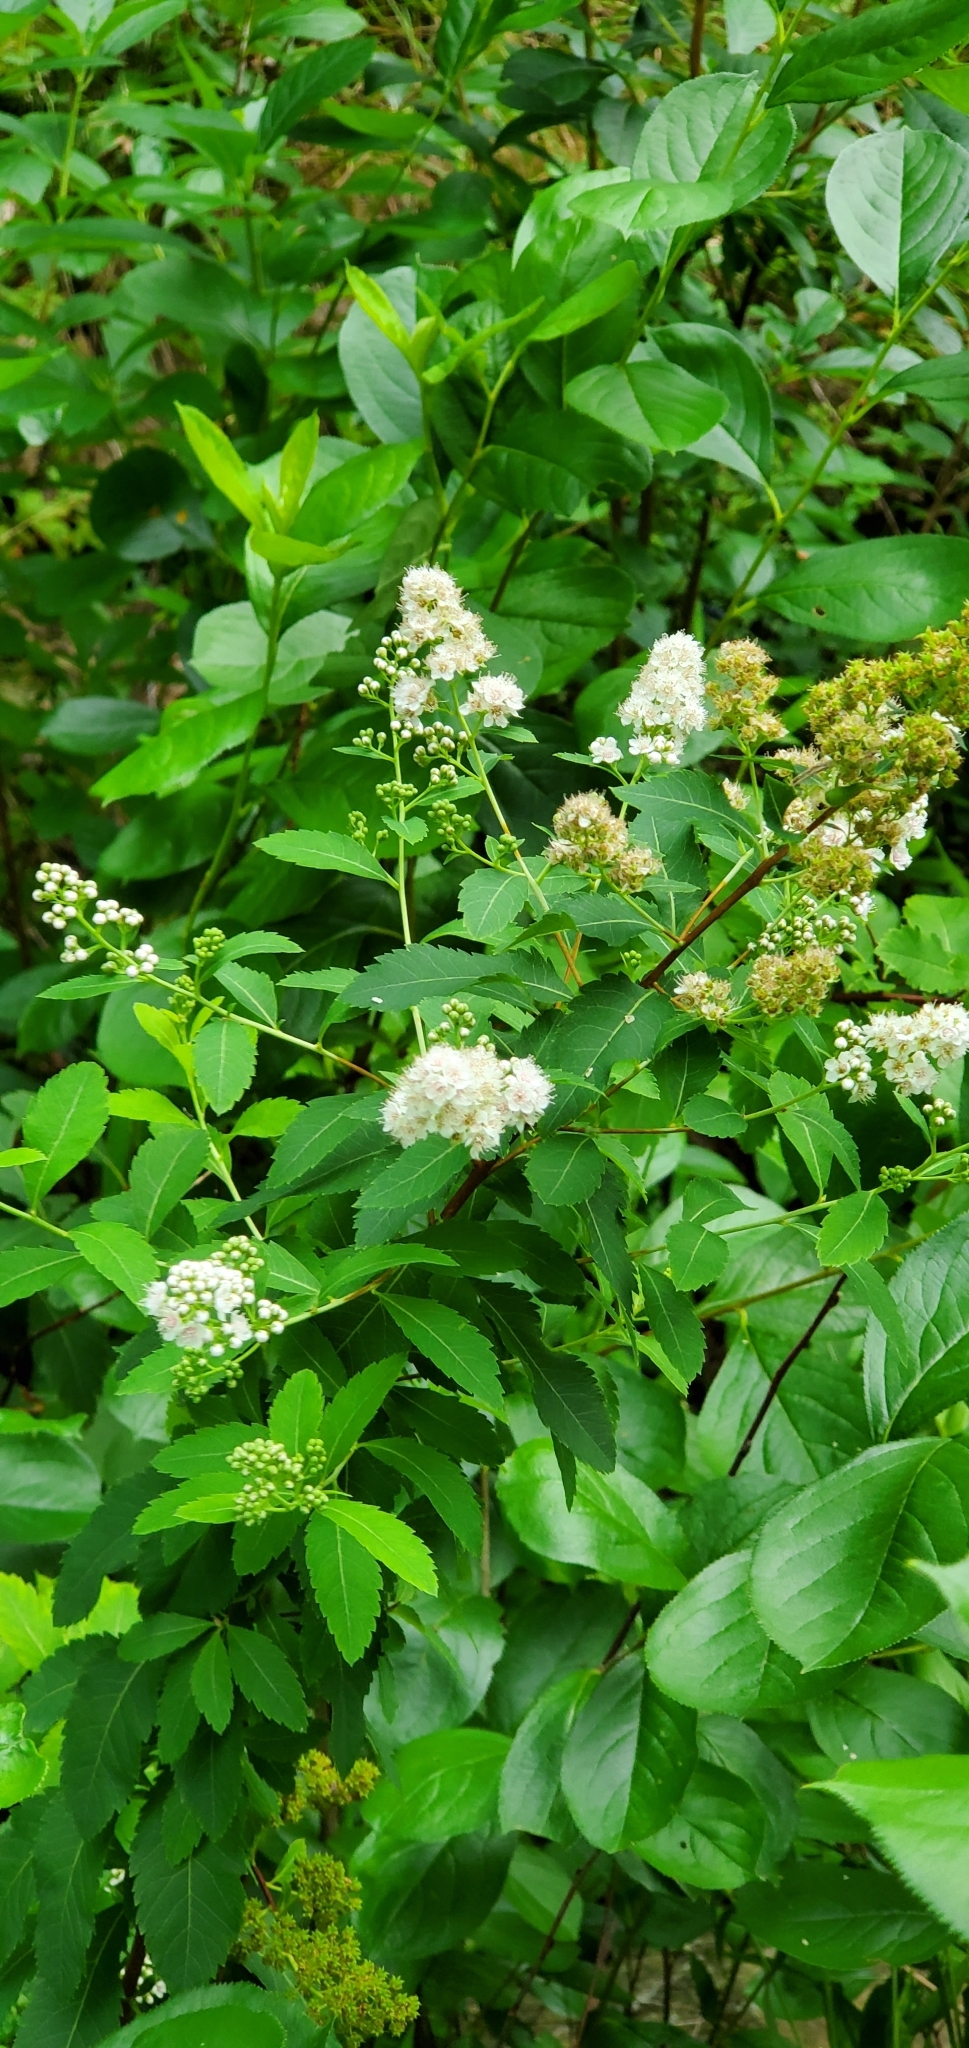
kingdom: Plantae
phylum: Tracheophyta
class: Magnoliopsida
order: Rosales
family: Rosaceae
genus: Spiraea
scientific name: Spiraea alba
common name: Pale bridewort
